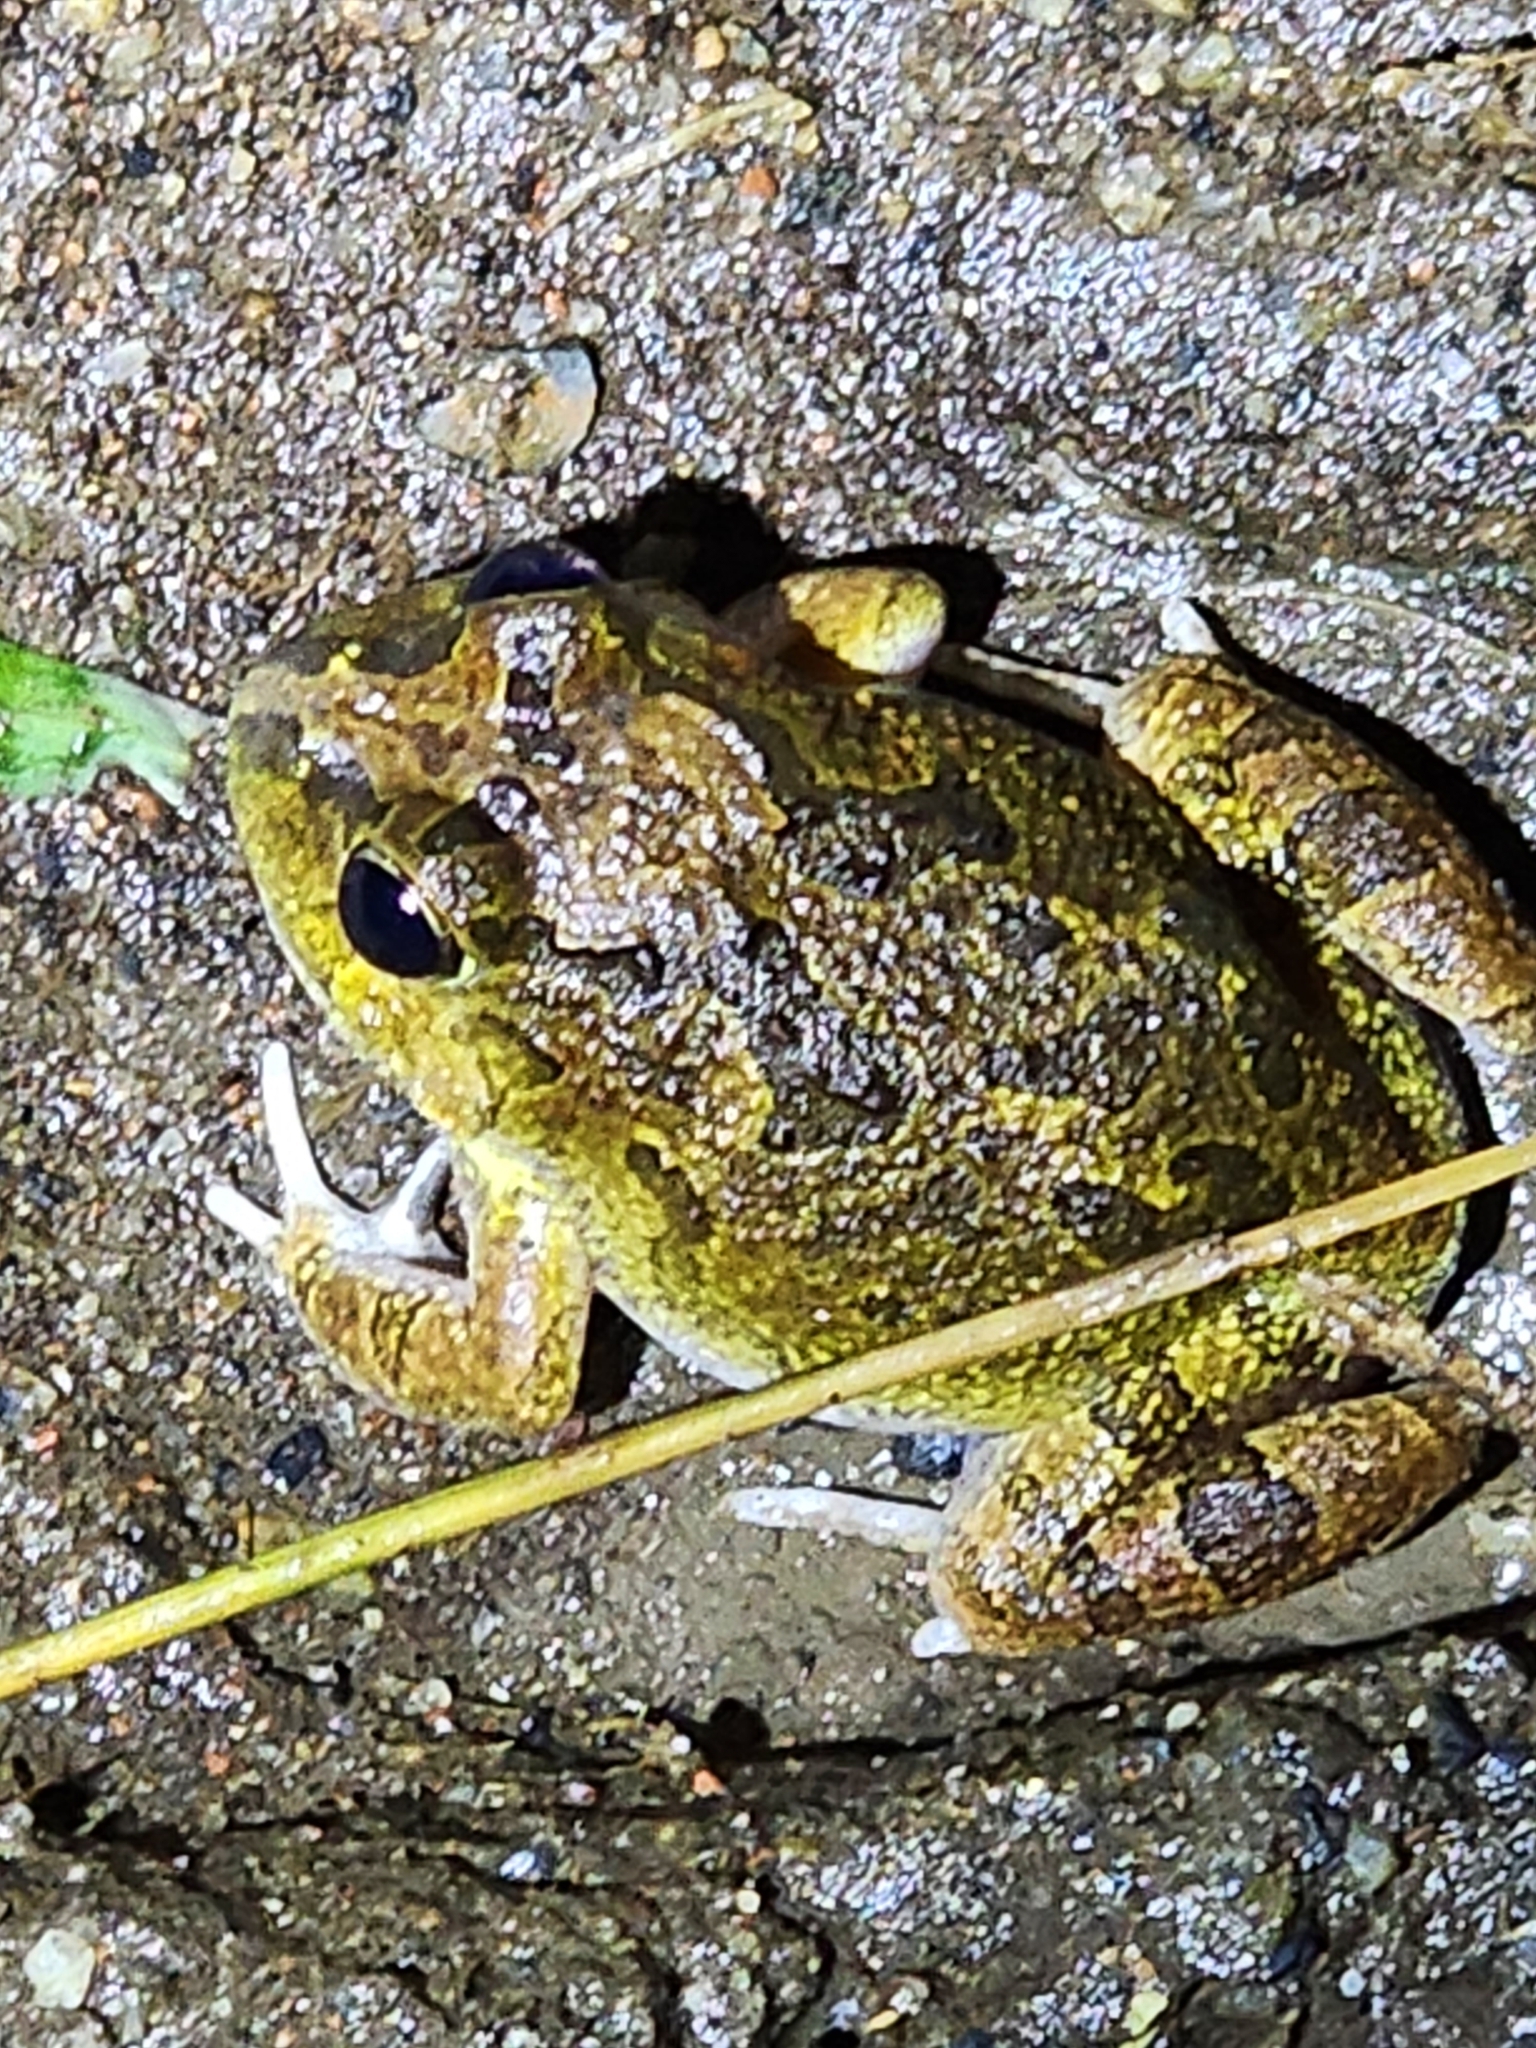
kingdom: Animalia
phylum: Chordata
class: Amphibia
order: Anura
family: Limnodynastidae
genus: Platyplectrum
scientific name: Platyplectrum ornatum
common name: Ornate burrowing frog
